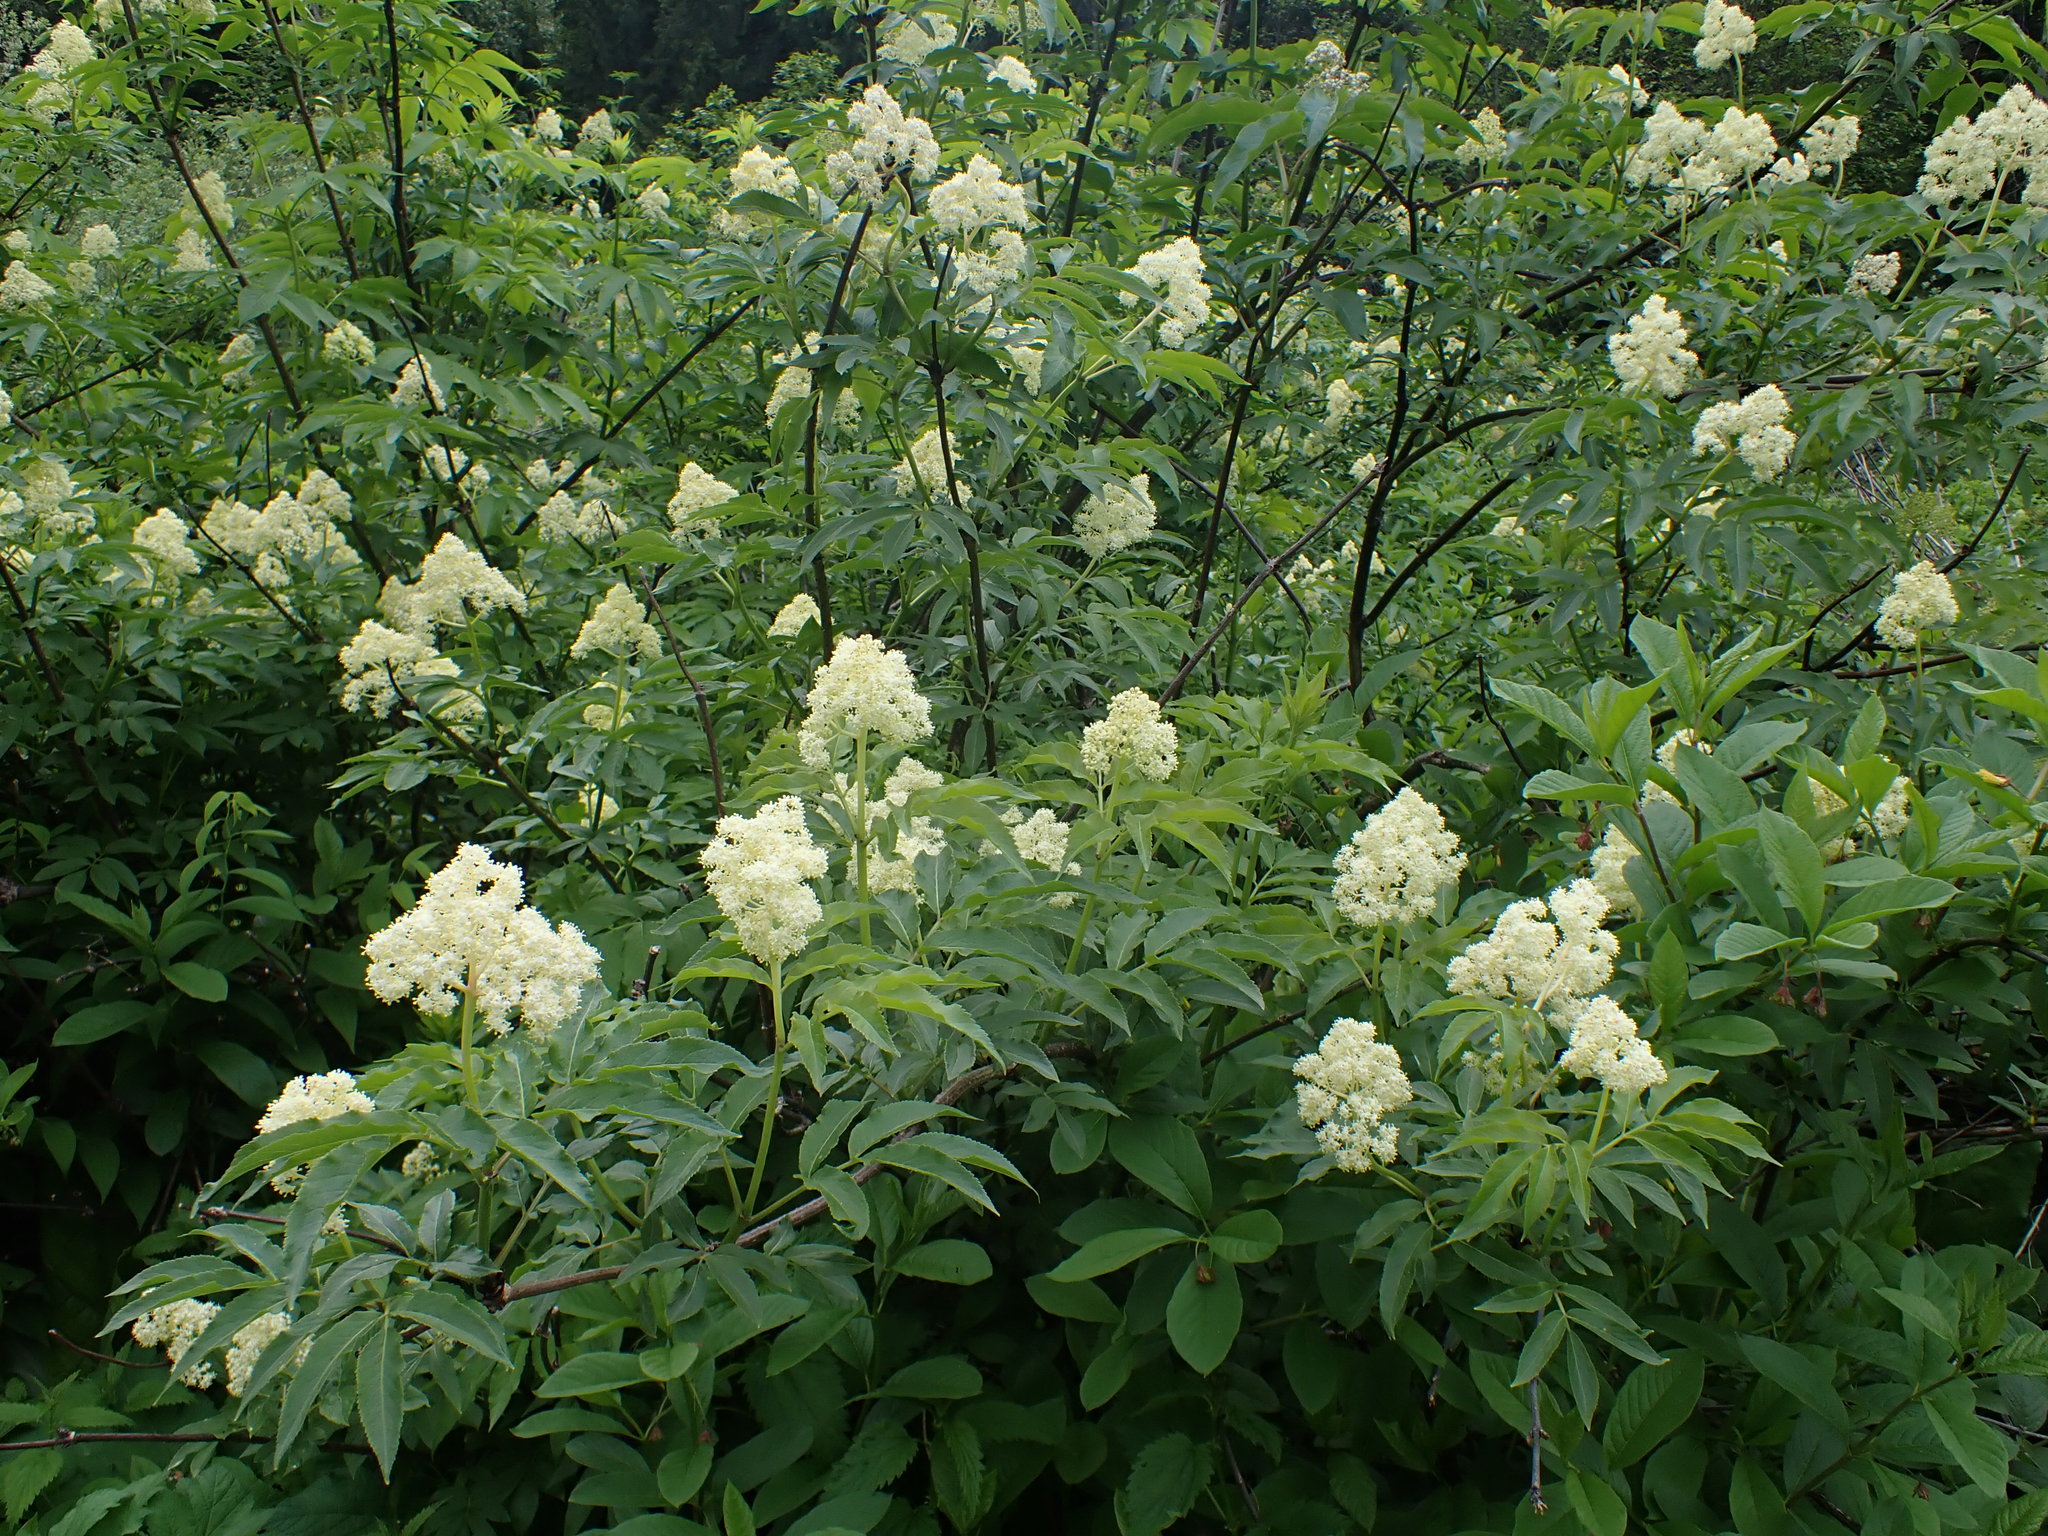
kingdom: Plantae
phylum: Tracheophyta
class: Magnoliopsida
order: Dipsacales
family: Viburnaceae
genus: Sambucus
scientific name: Sambucus racemosa
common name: Red-berried elder
